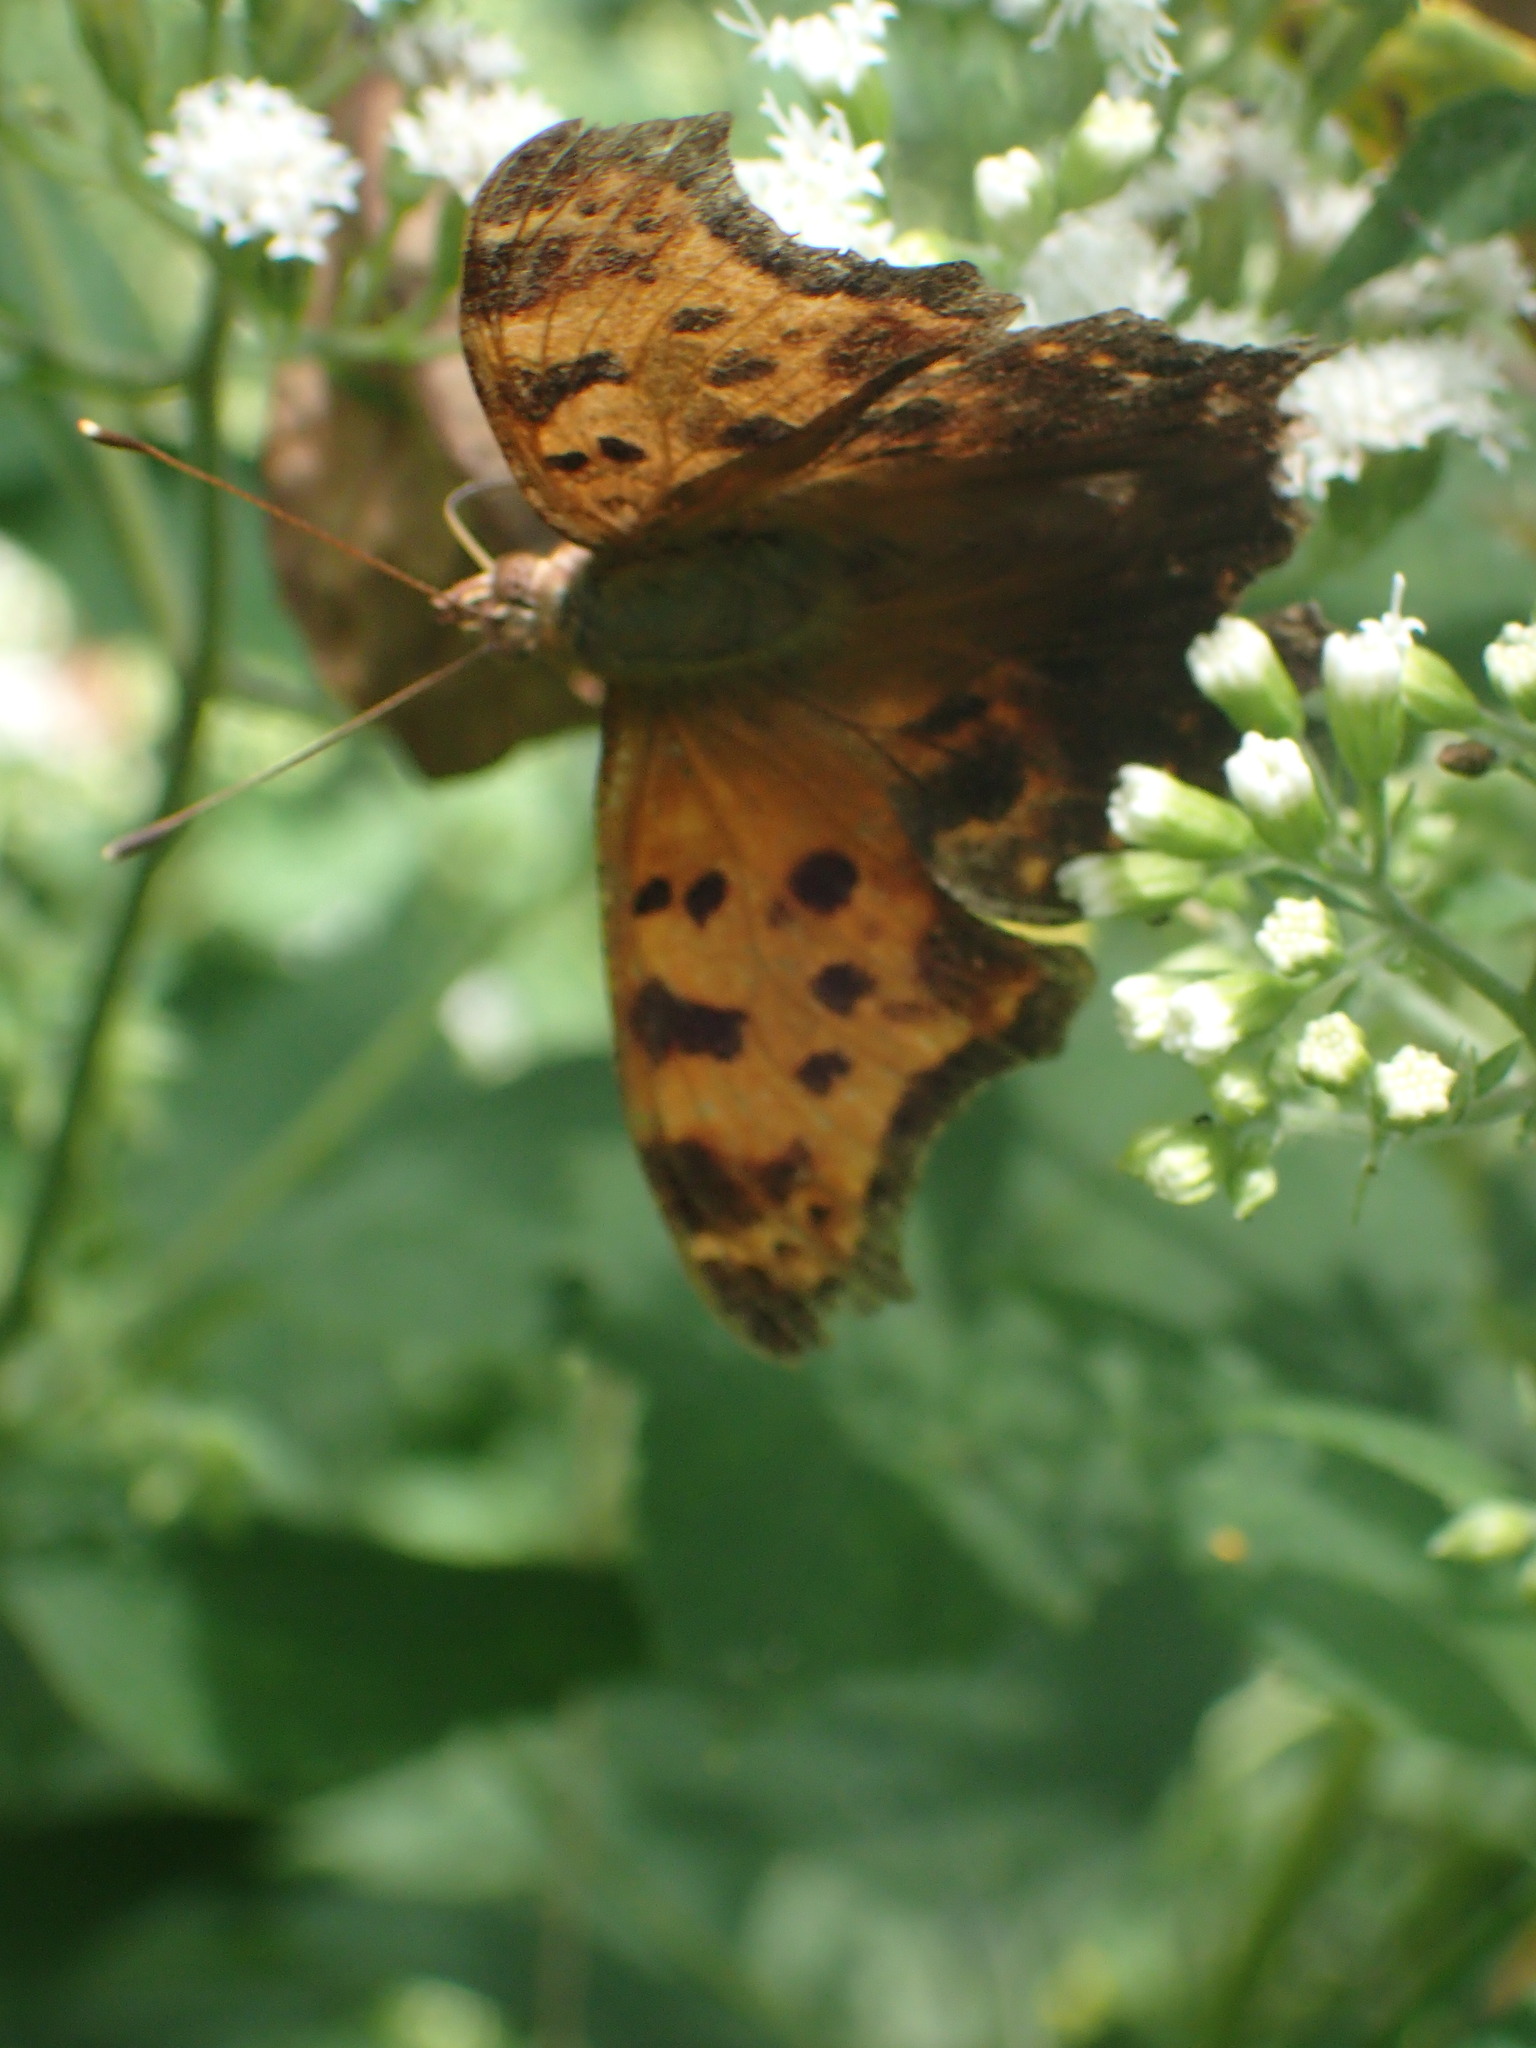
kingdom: Animalia
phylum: Arthropoda
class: Insecta
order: Lepidoptera
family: Nymphalidae
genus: Polygonia
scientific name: Polygonia comma
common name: Eastern comma
